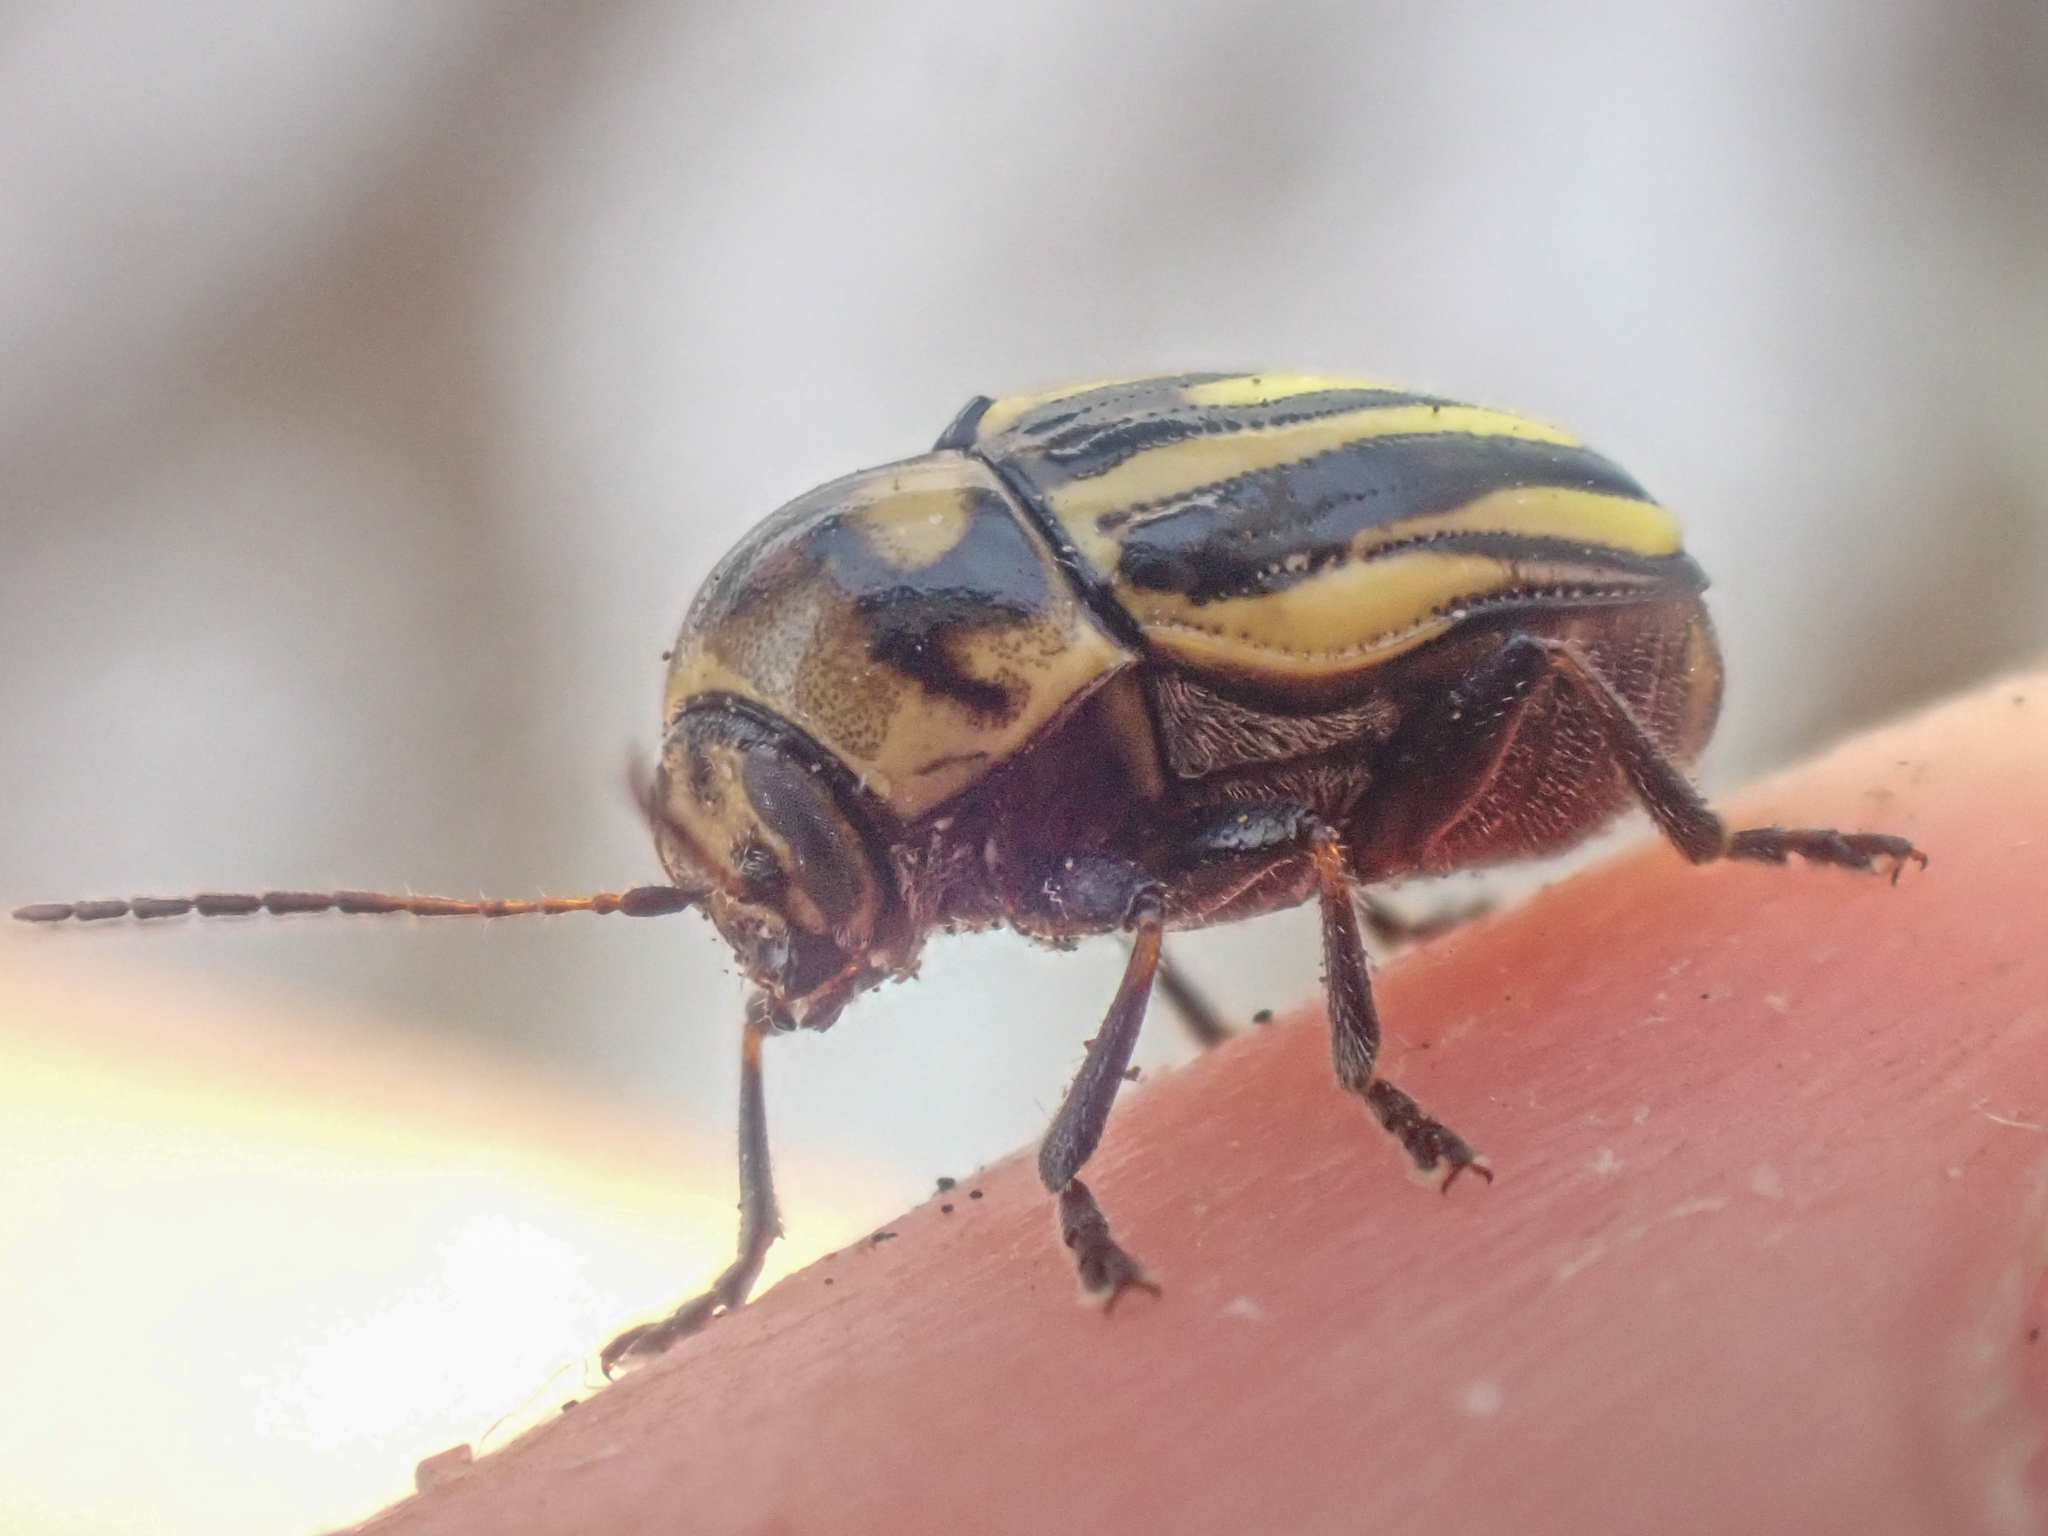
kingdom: Animalia
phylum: Arthropoda
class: Insecta
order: Coleoptera
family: Chrysomelidae
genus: Cryptocephalus
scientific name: Cryptocephalus alternans
